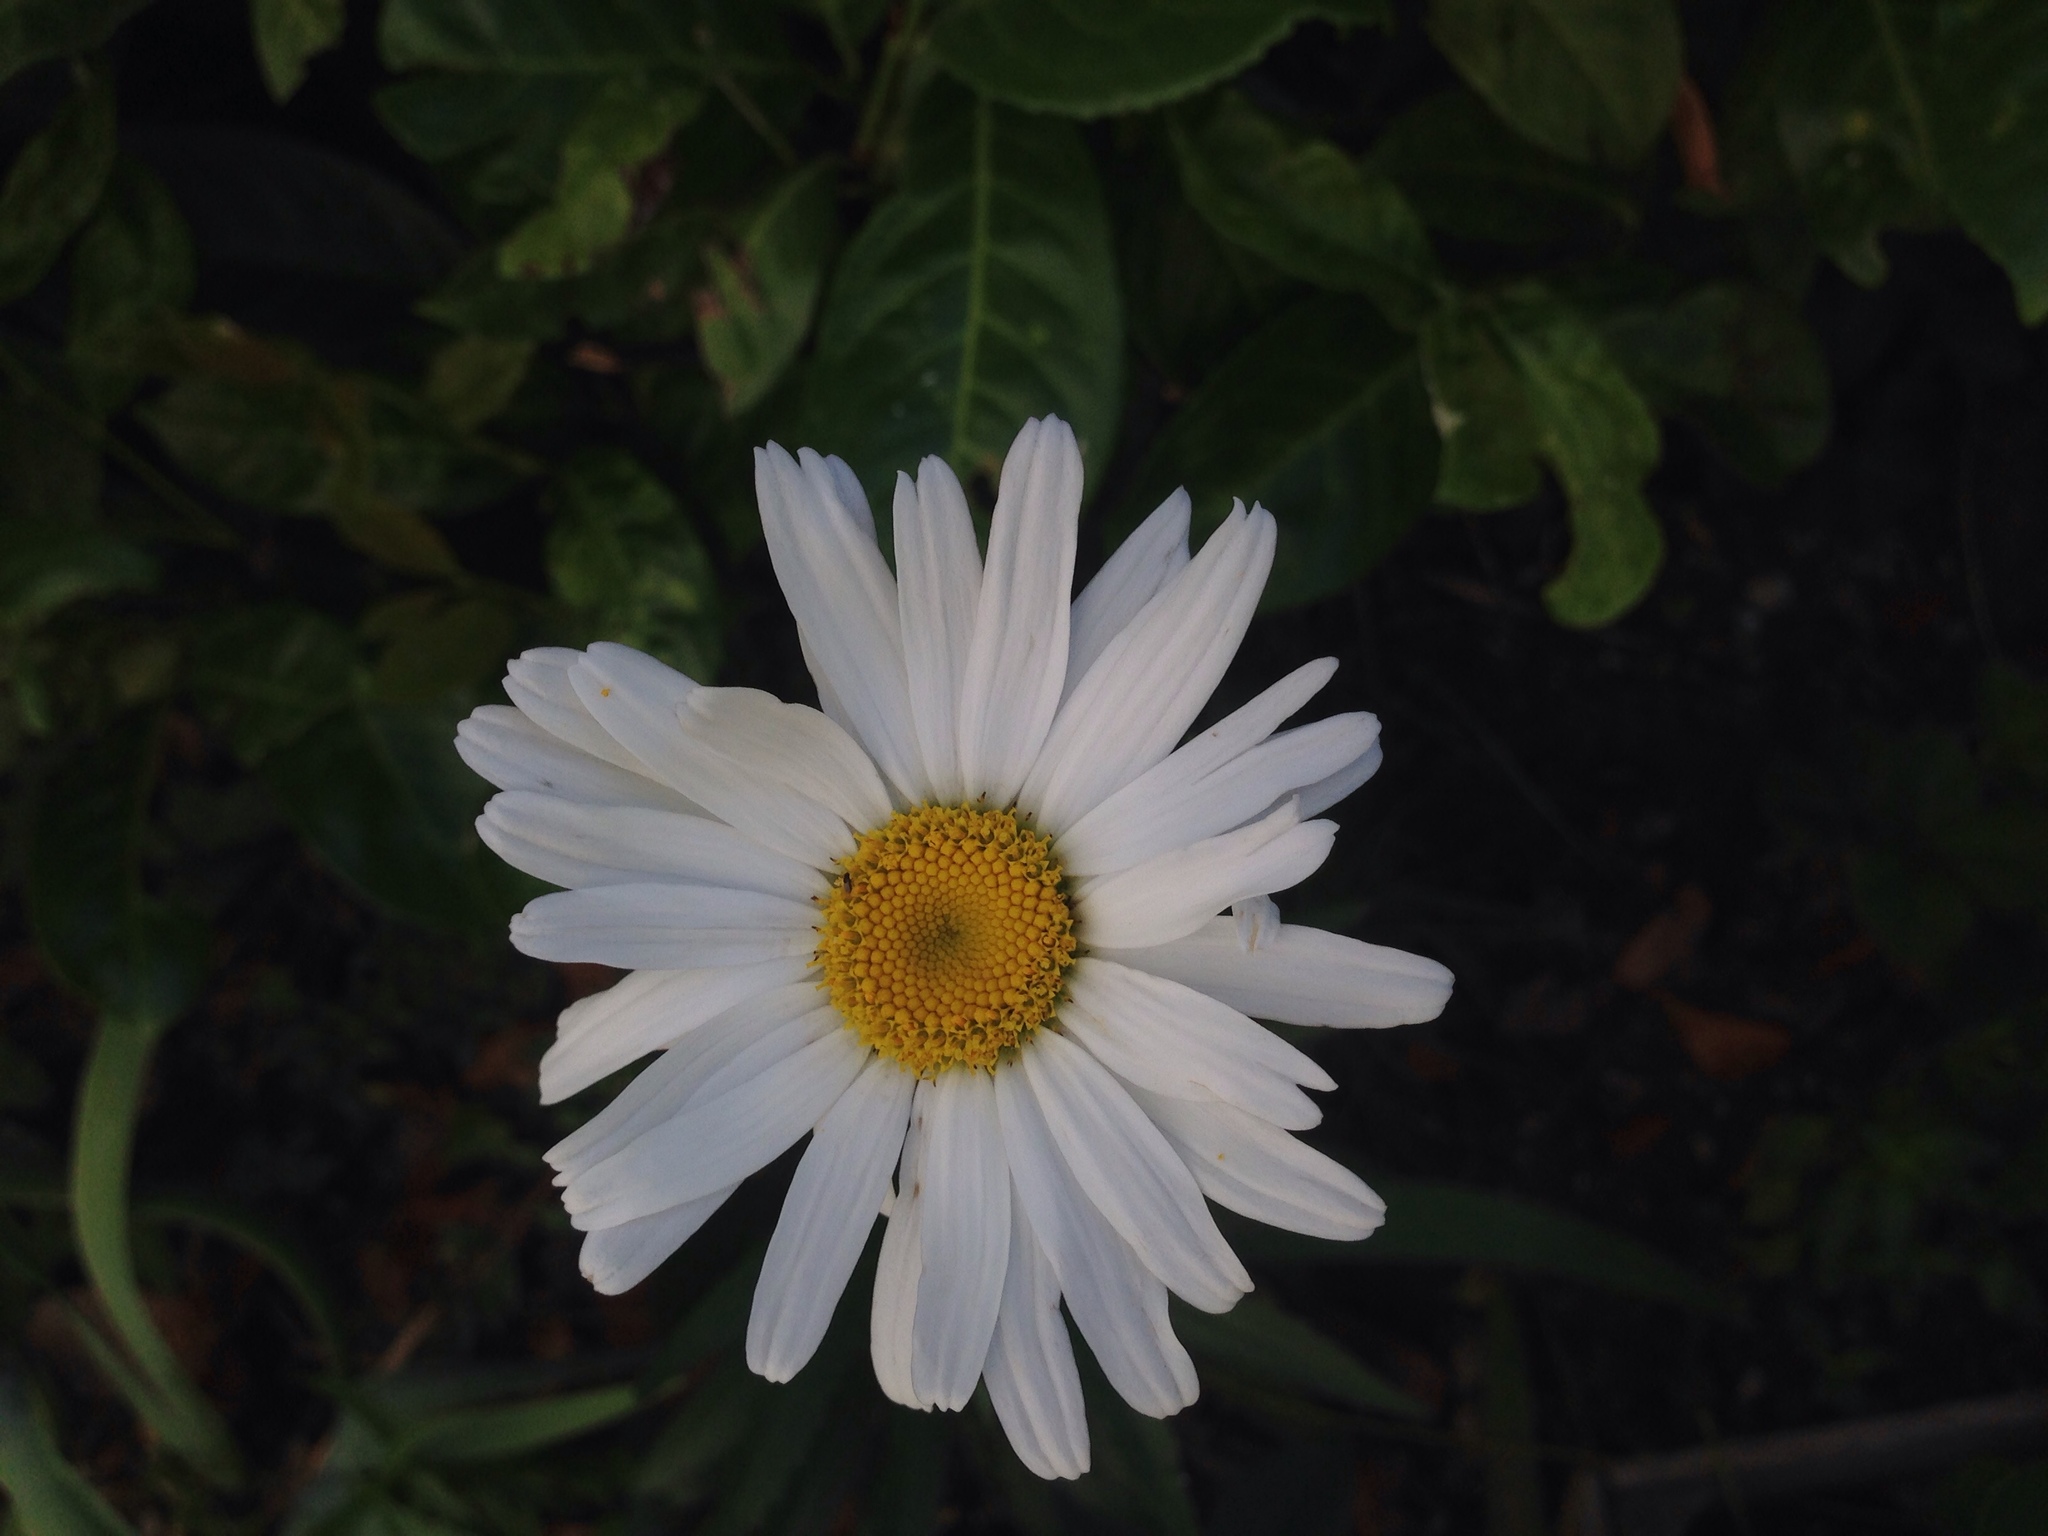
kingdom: Plantae
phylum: Tracheophyta
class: Magnoliopsida
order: Asterales
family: Asteraceae
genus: Leucanthemum
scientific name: Leucanthemum vulgare
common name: Oxeye daisy
